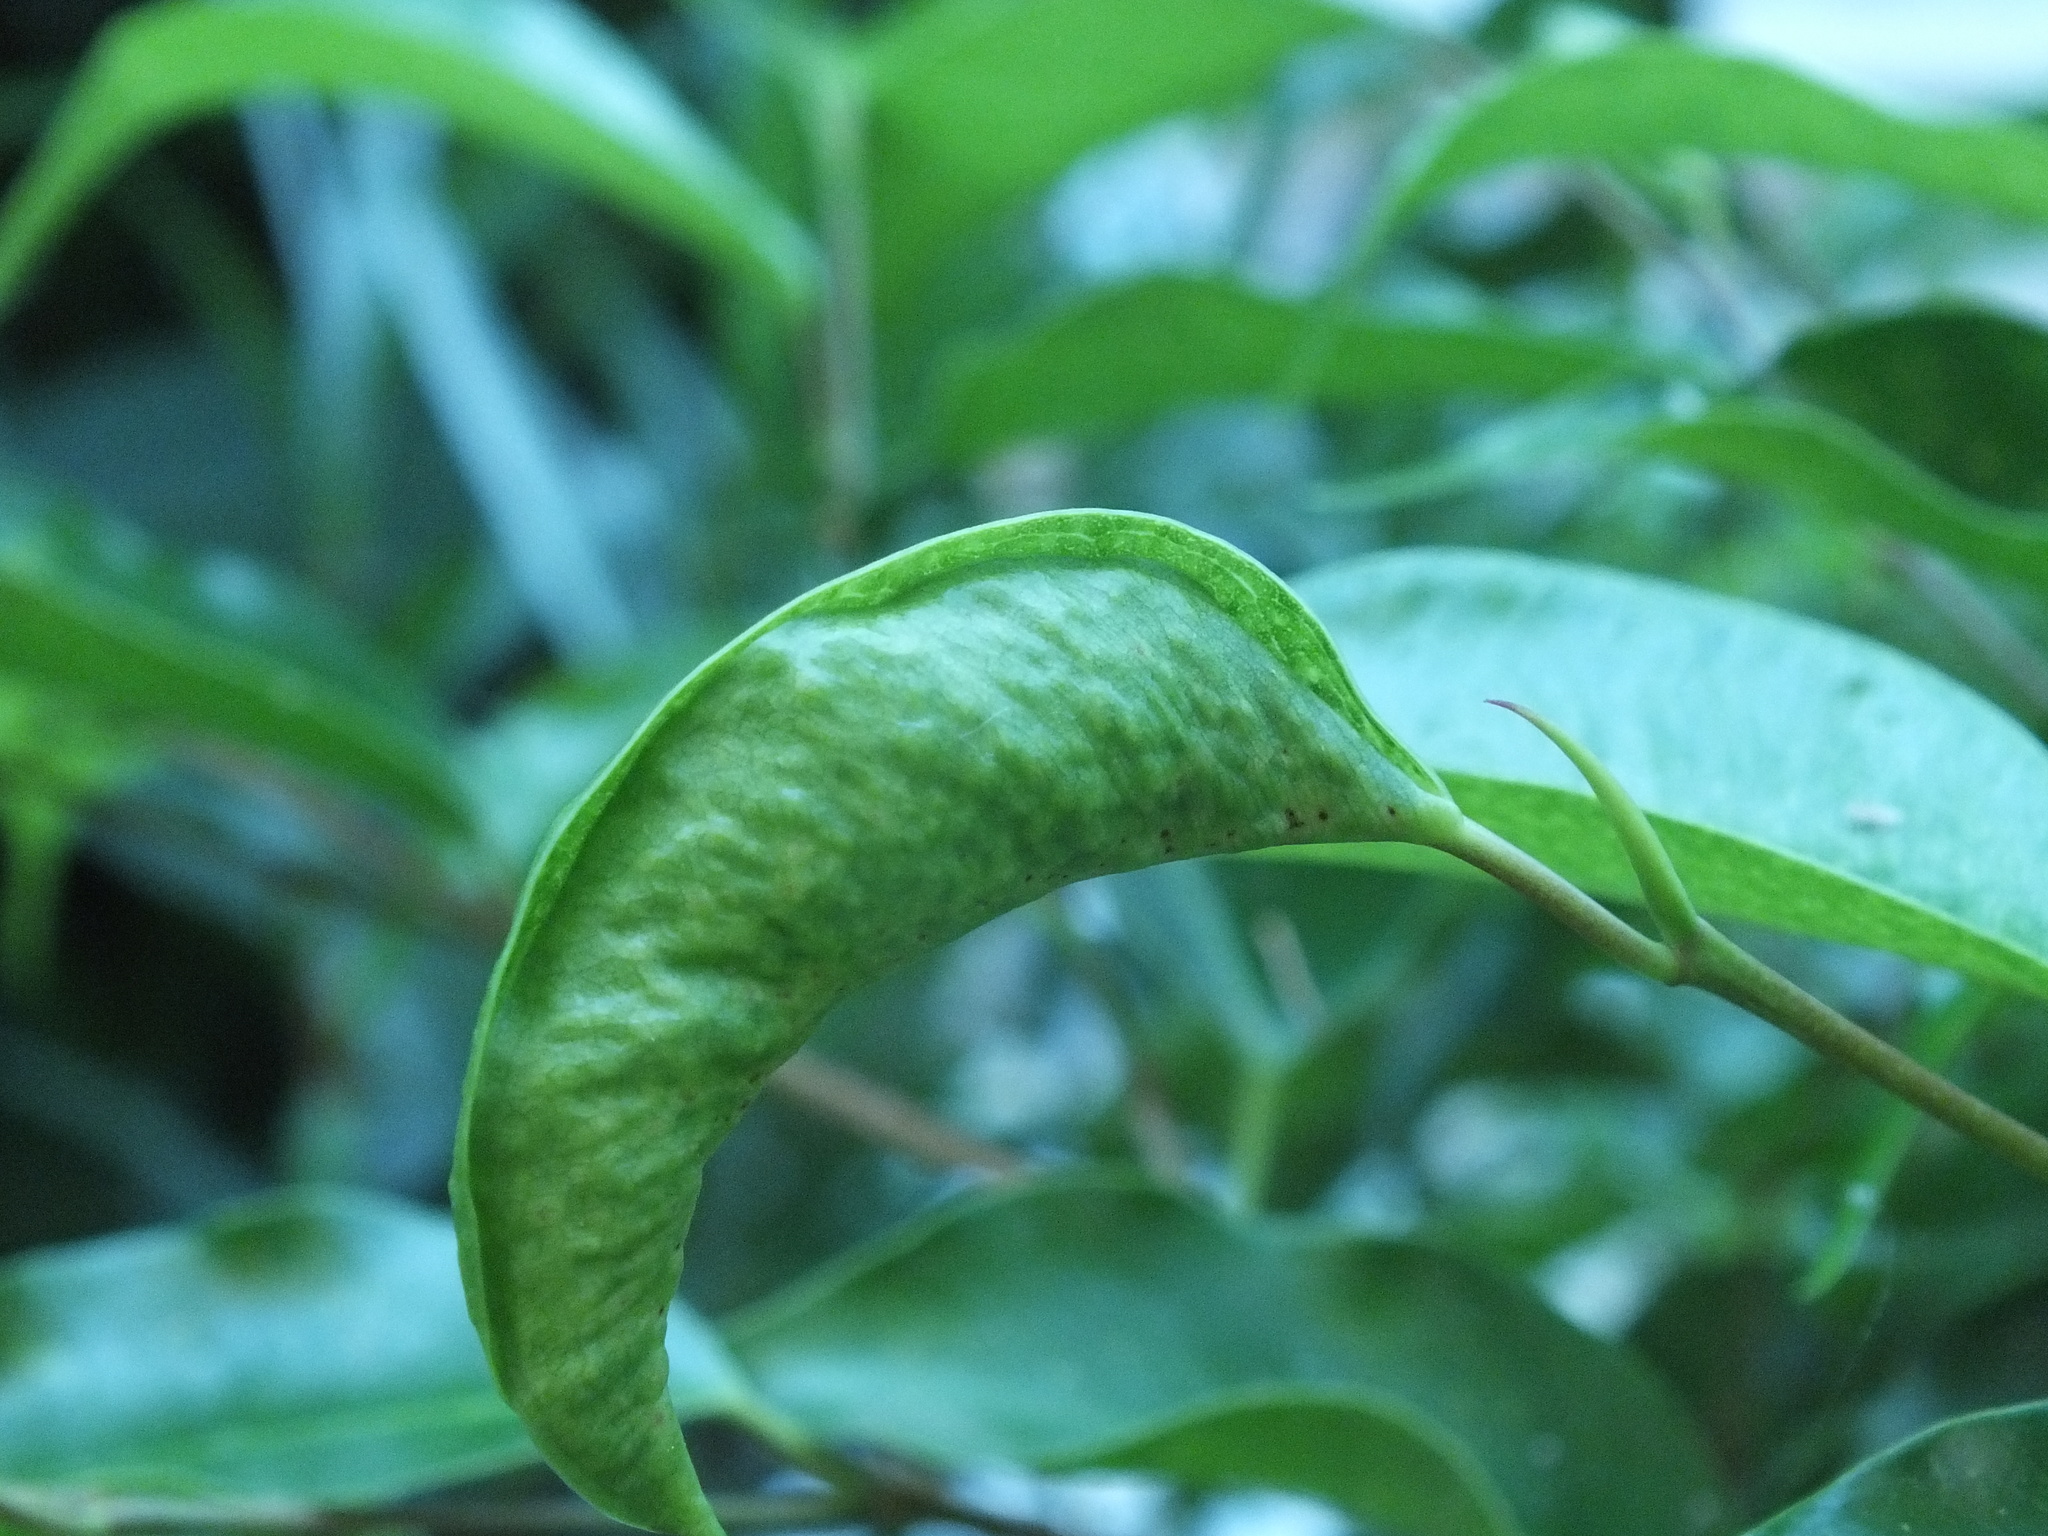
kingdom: Animalia
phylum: Arthropoda
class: Insecta
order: Thysanoptera
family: Phlaeothripidae
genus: Gynaikothrips
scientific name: Gynaikothrips uzeli
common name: Leaf-gall thrips
